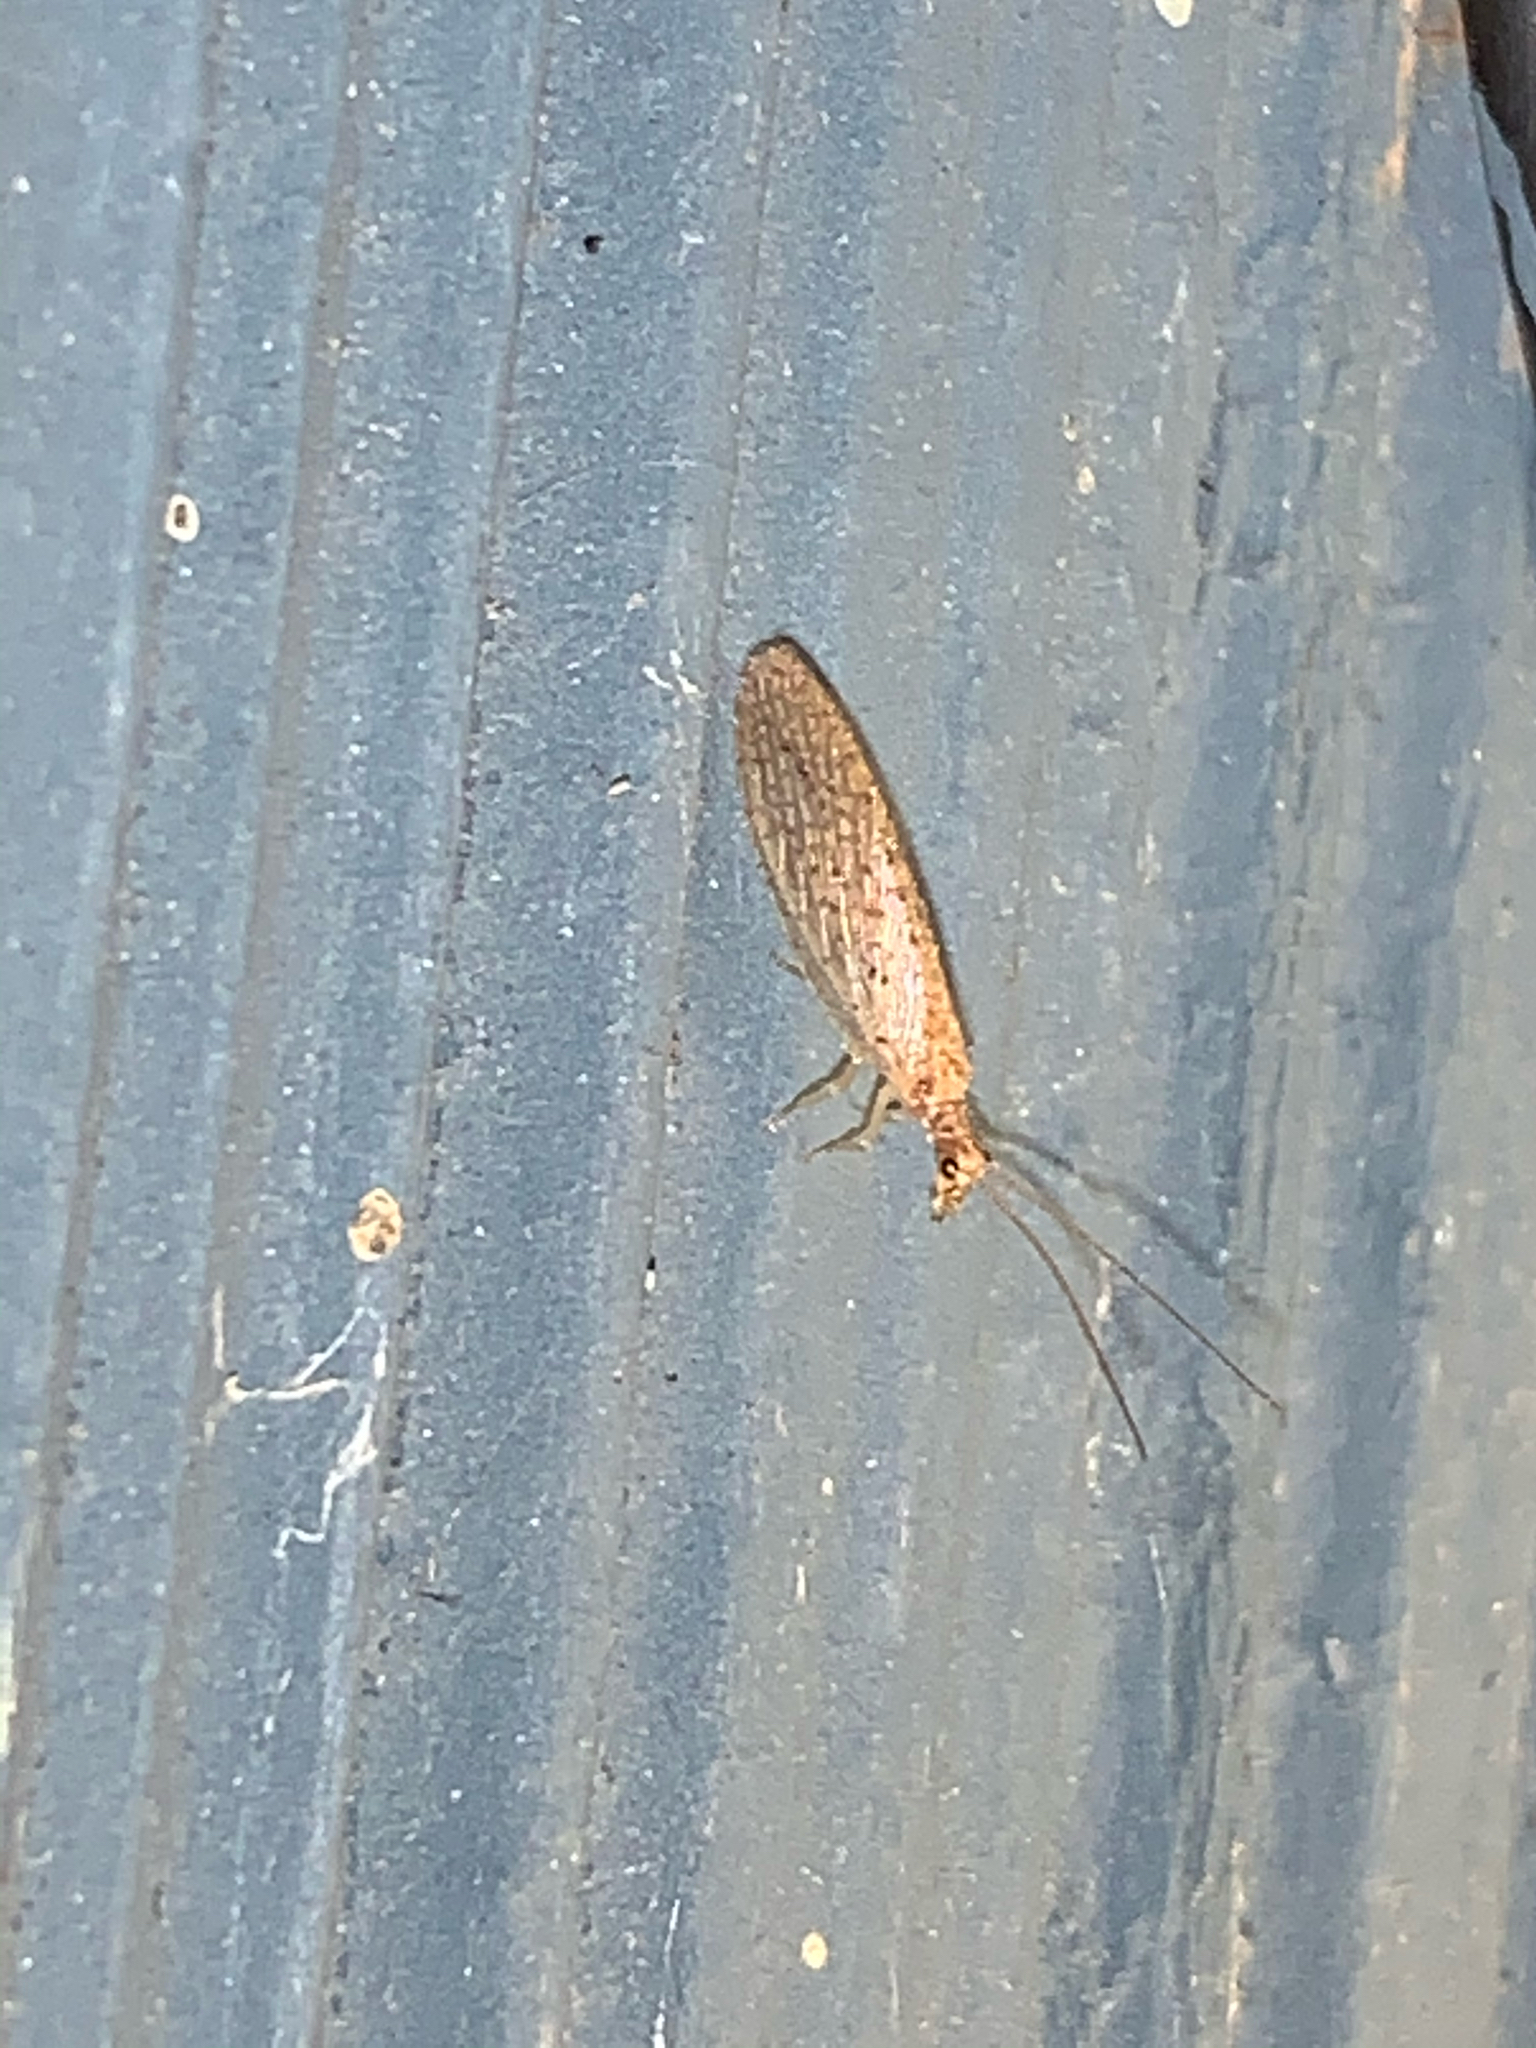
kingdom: Animalia
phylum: Arthropoda
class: Insecta
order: Neuroptera
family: Hemerobiidae
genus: Micromus
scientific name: Micromus
